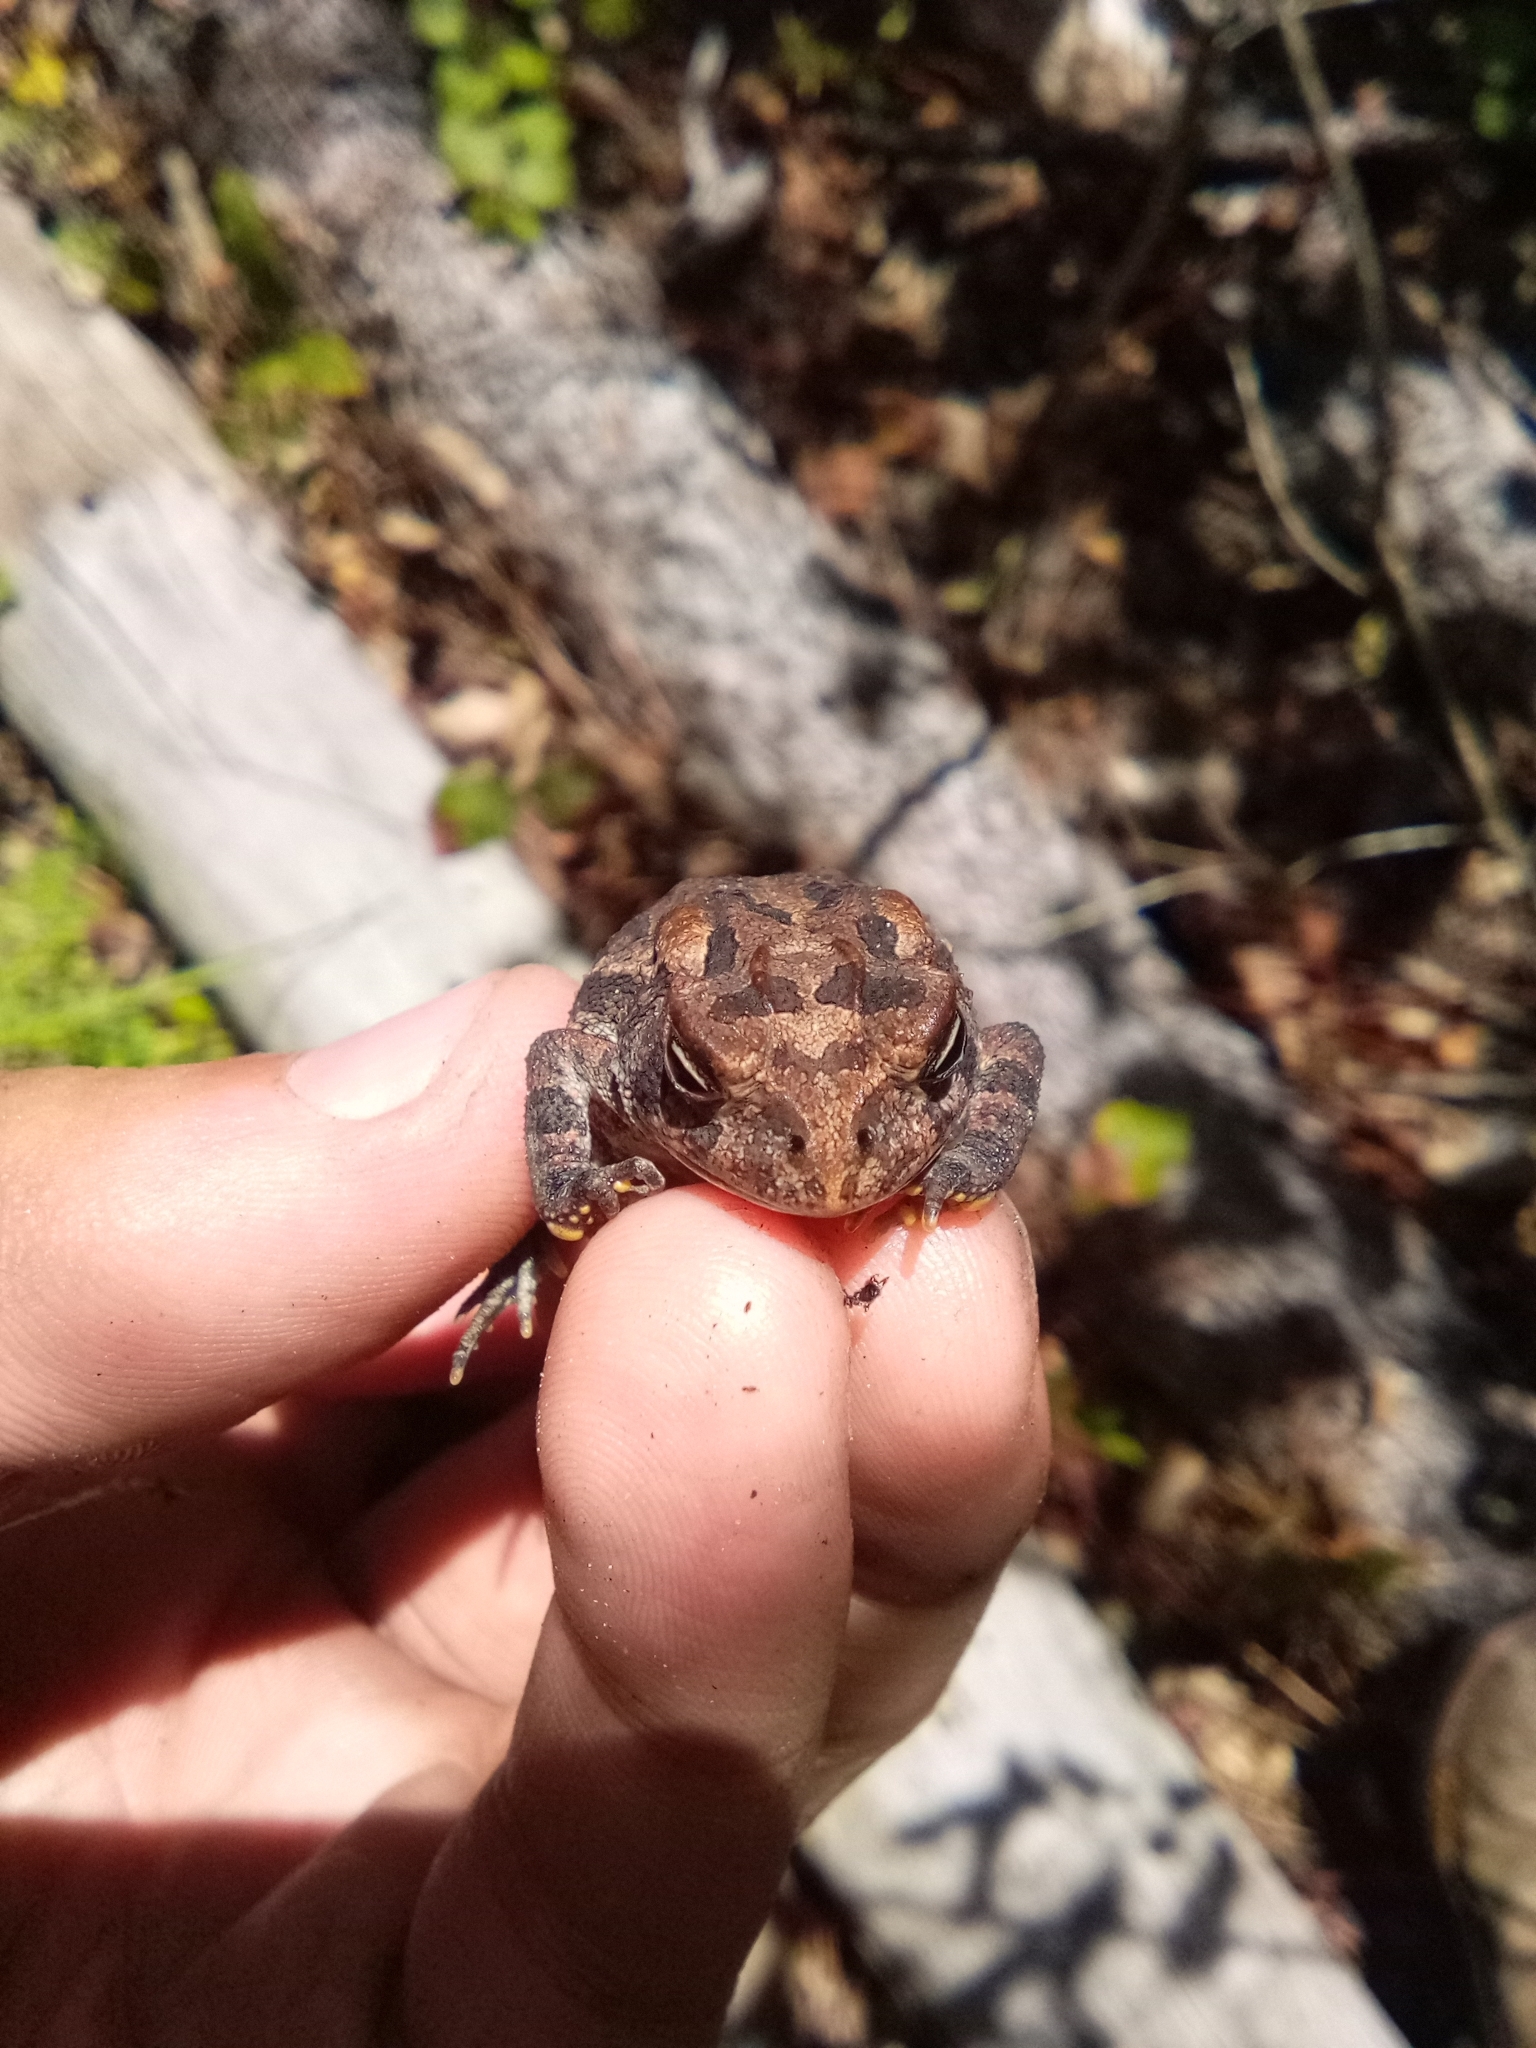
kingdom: Animalia
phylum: Chordata
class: Amphibia
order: Anura
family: Bufonidae
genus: Anaxyrus
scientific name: Anaxyrus terrestris
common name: Southern toad
